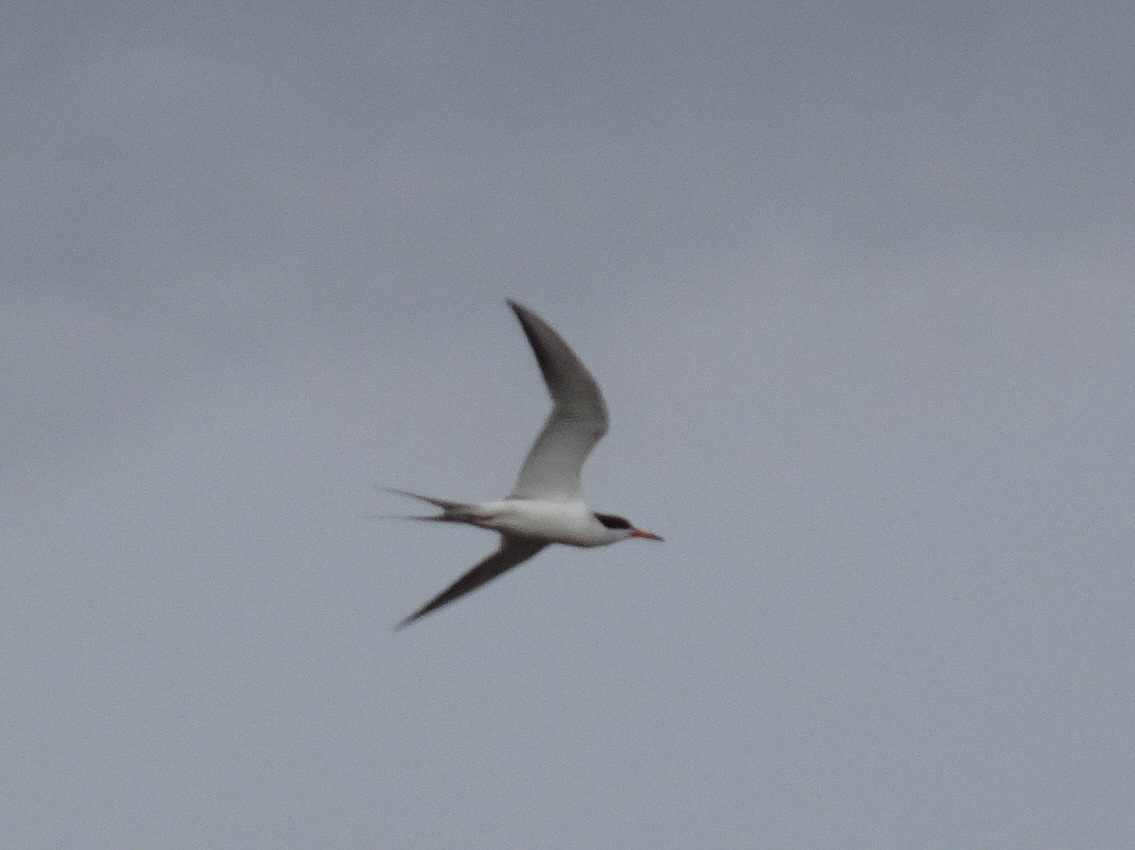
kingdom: Animalia
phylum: Chordata
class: Aves
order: Charadriiformes
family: Laridae
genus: Sterna
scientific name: Sterna forsteri
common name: Forster's tern
